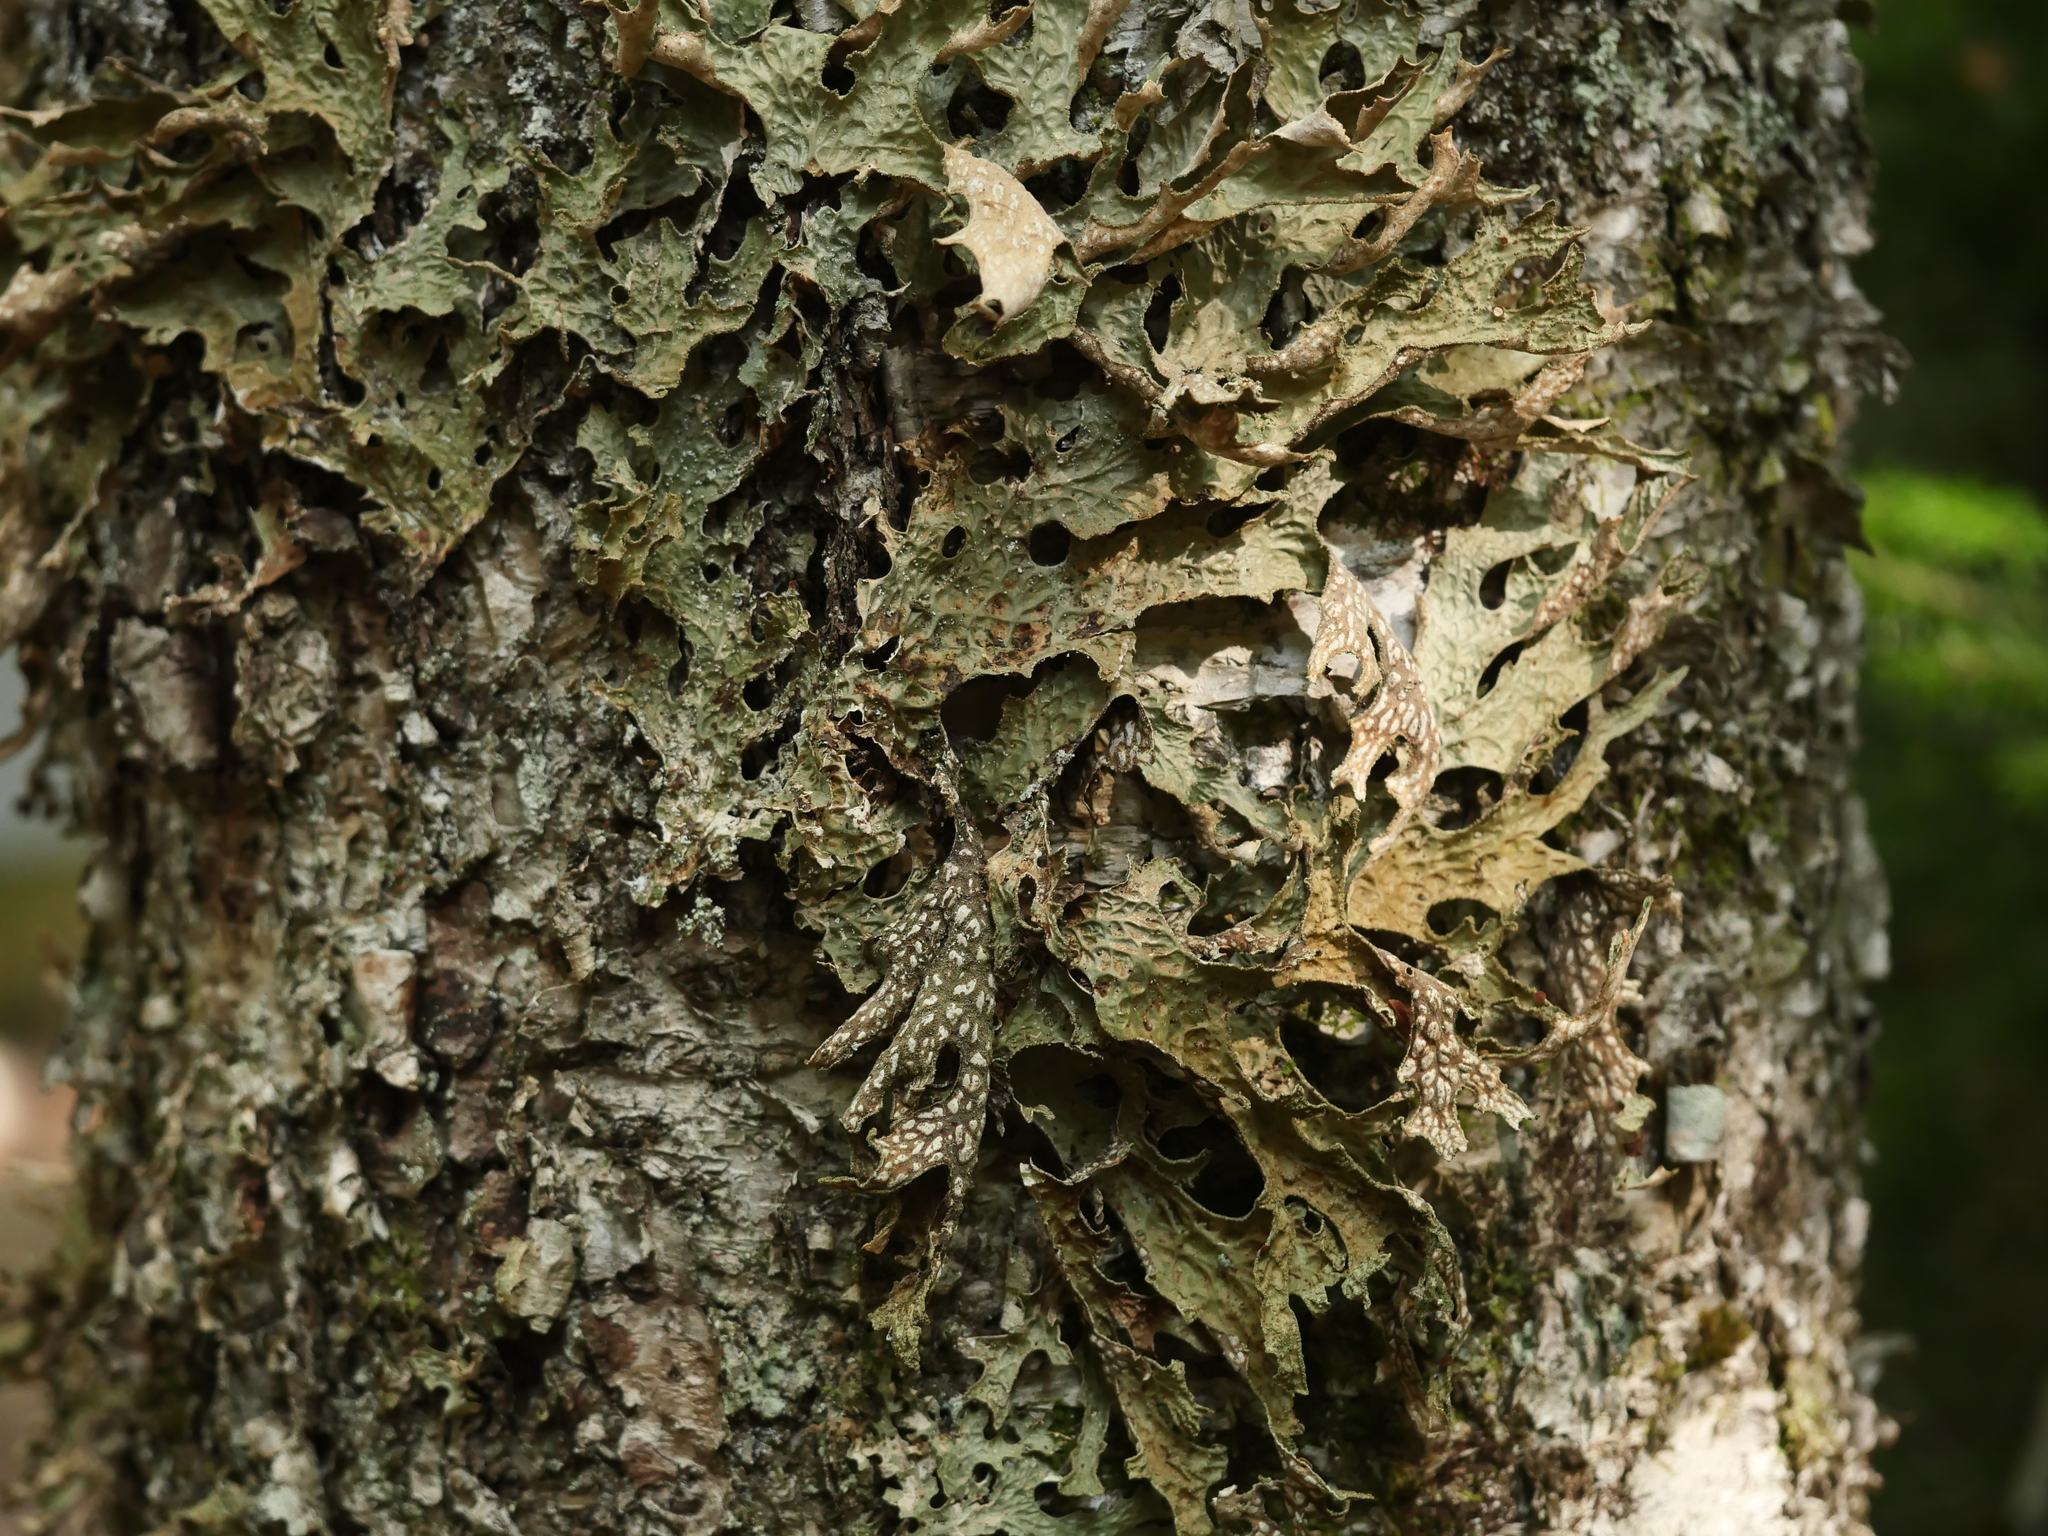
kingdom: Fungi
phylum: Ascomycota
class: Lecanoromycetes
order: Peltigerales
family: Lobariaceae
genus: Lobaria
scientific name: Lobaria pulmonaria
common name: Lungwort
